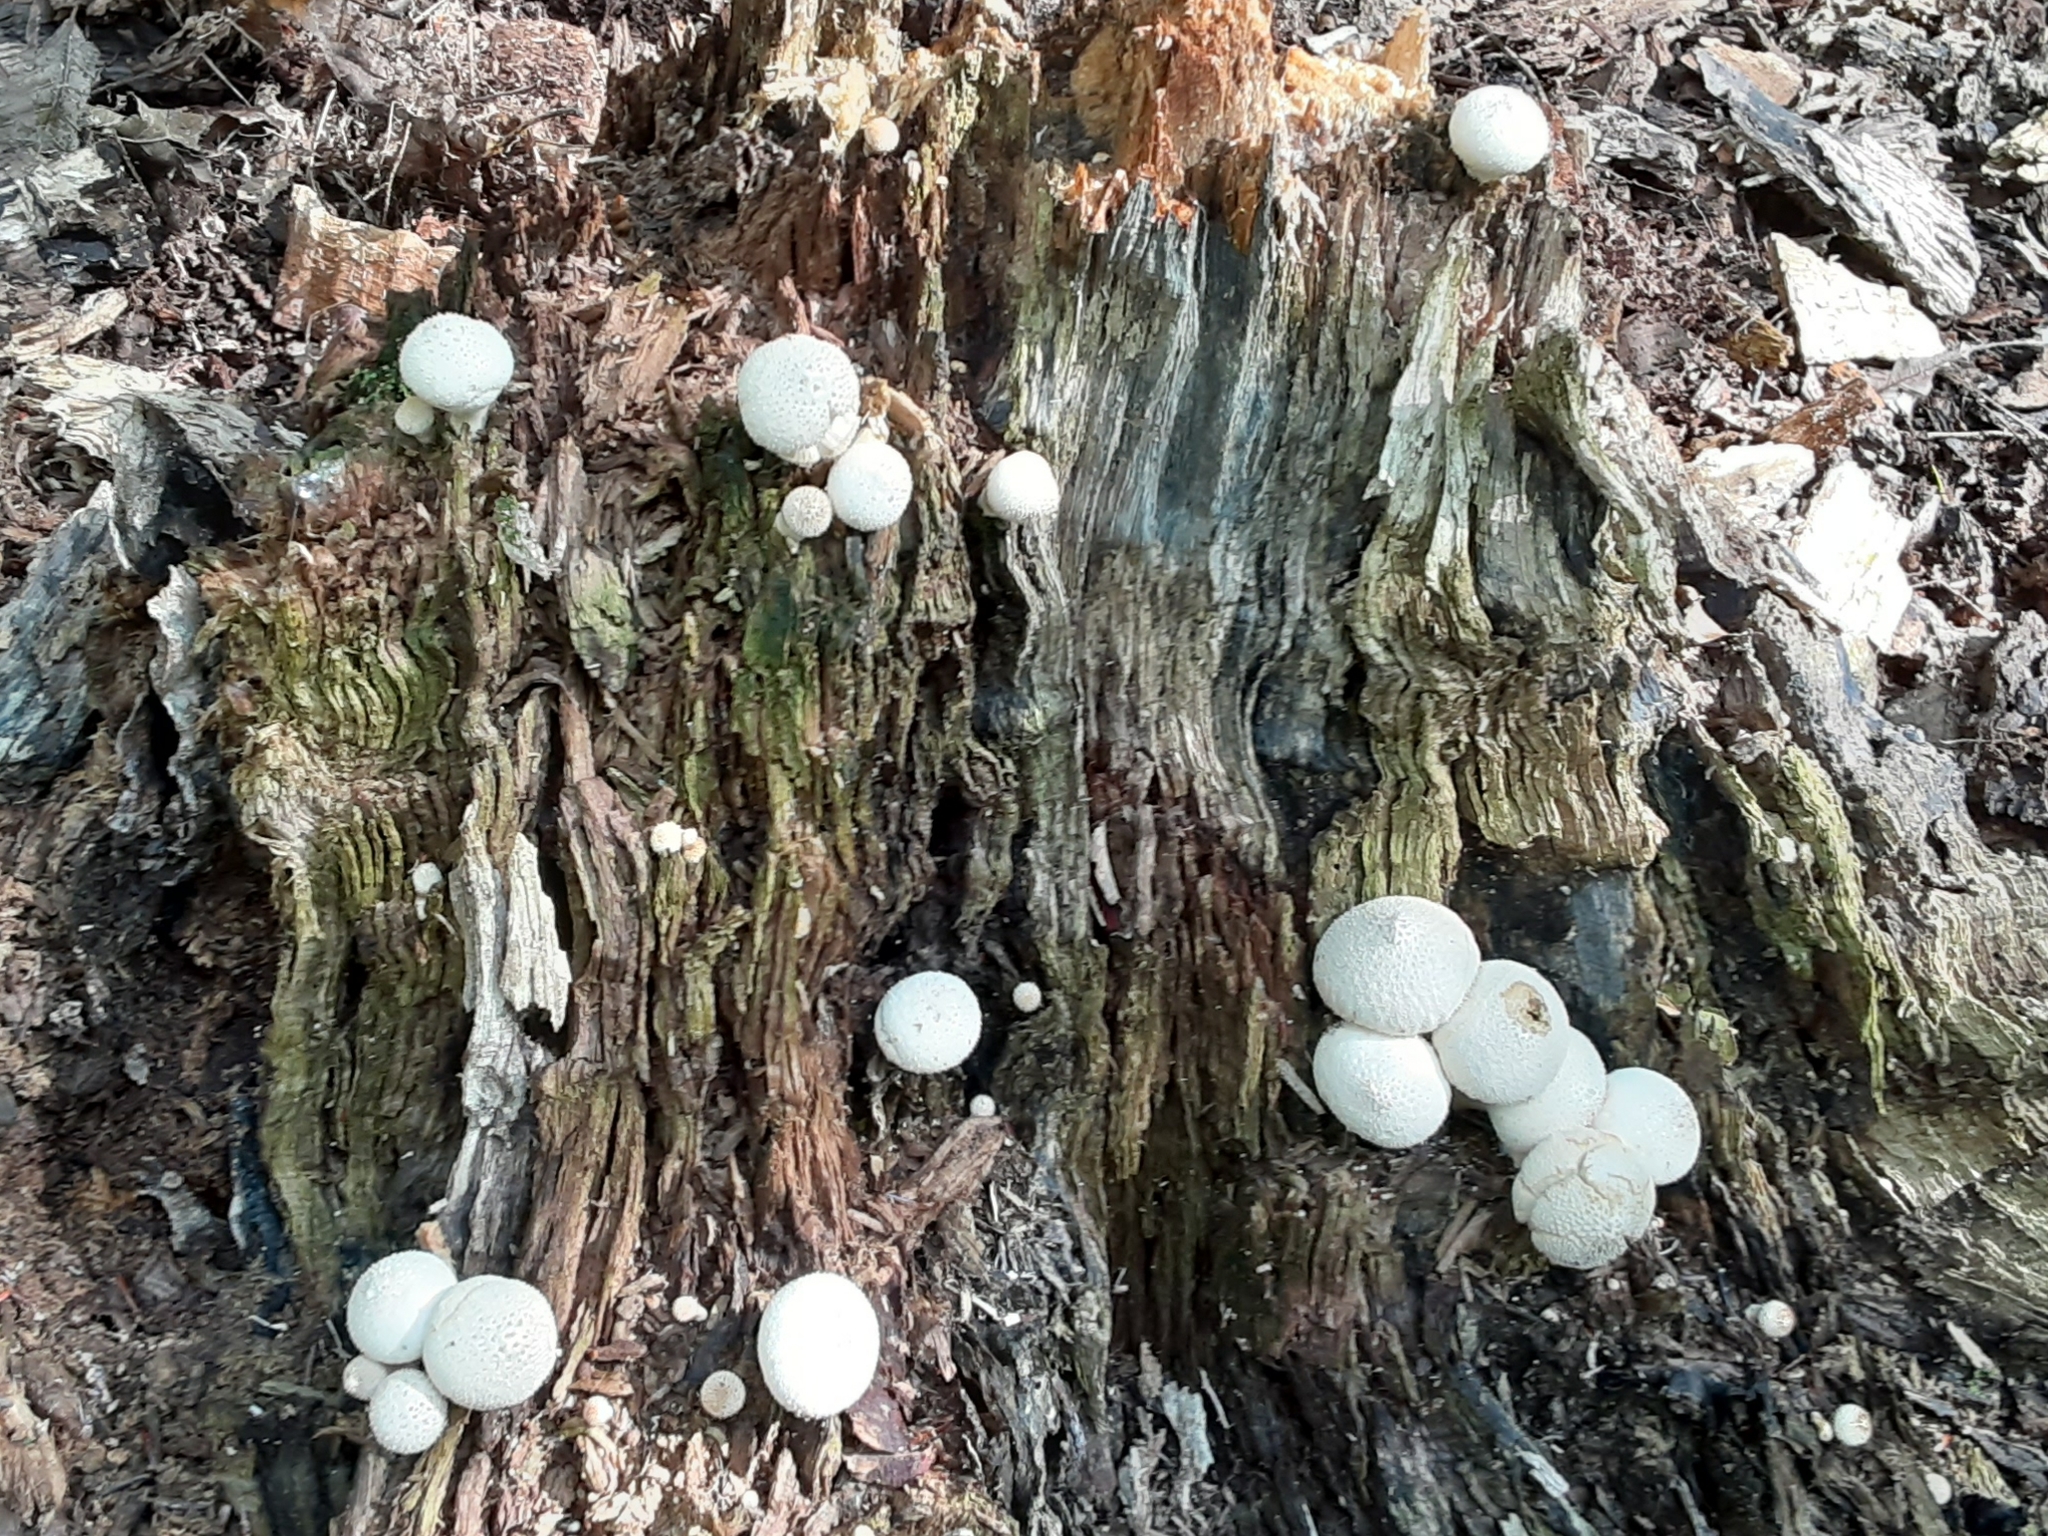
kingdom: Fungi
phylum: Basidiomycota
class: Agaricomycetes
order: Agaricales
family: Lycoperdaceae
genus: Lycoperdon
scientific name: Lycoperdon perlatum
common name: Common puffball
